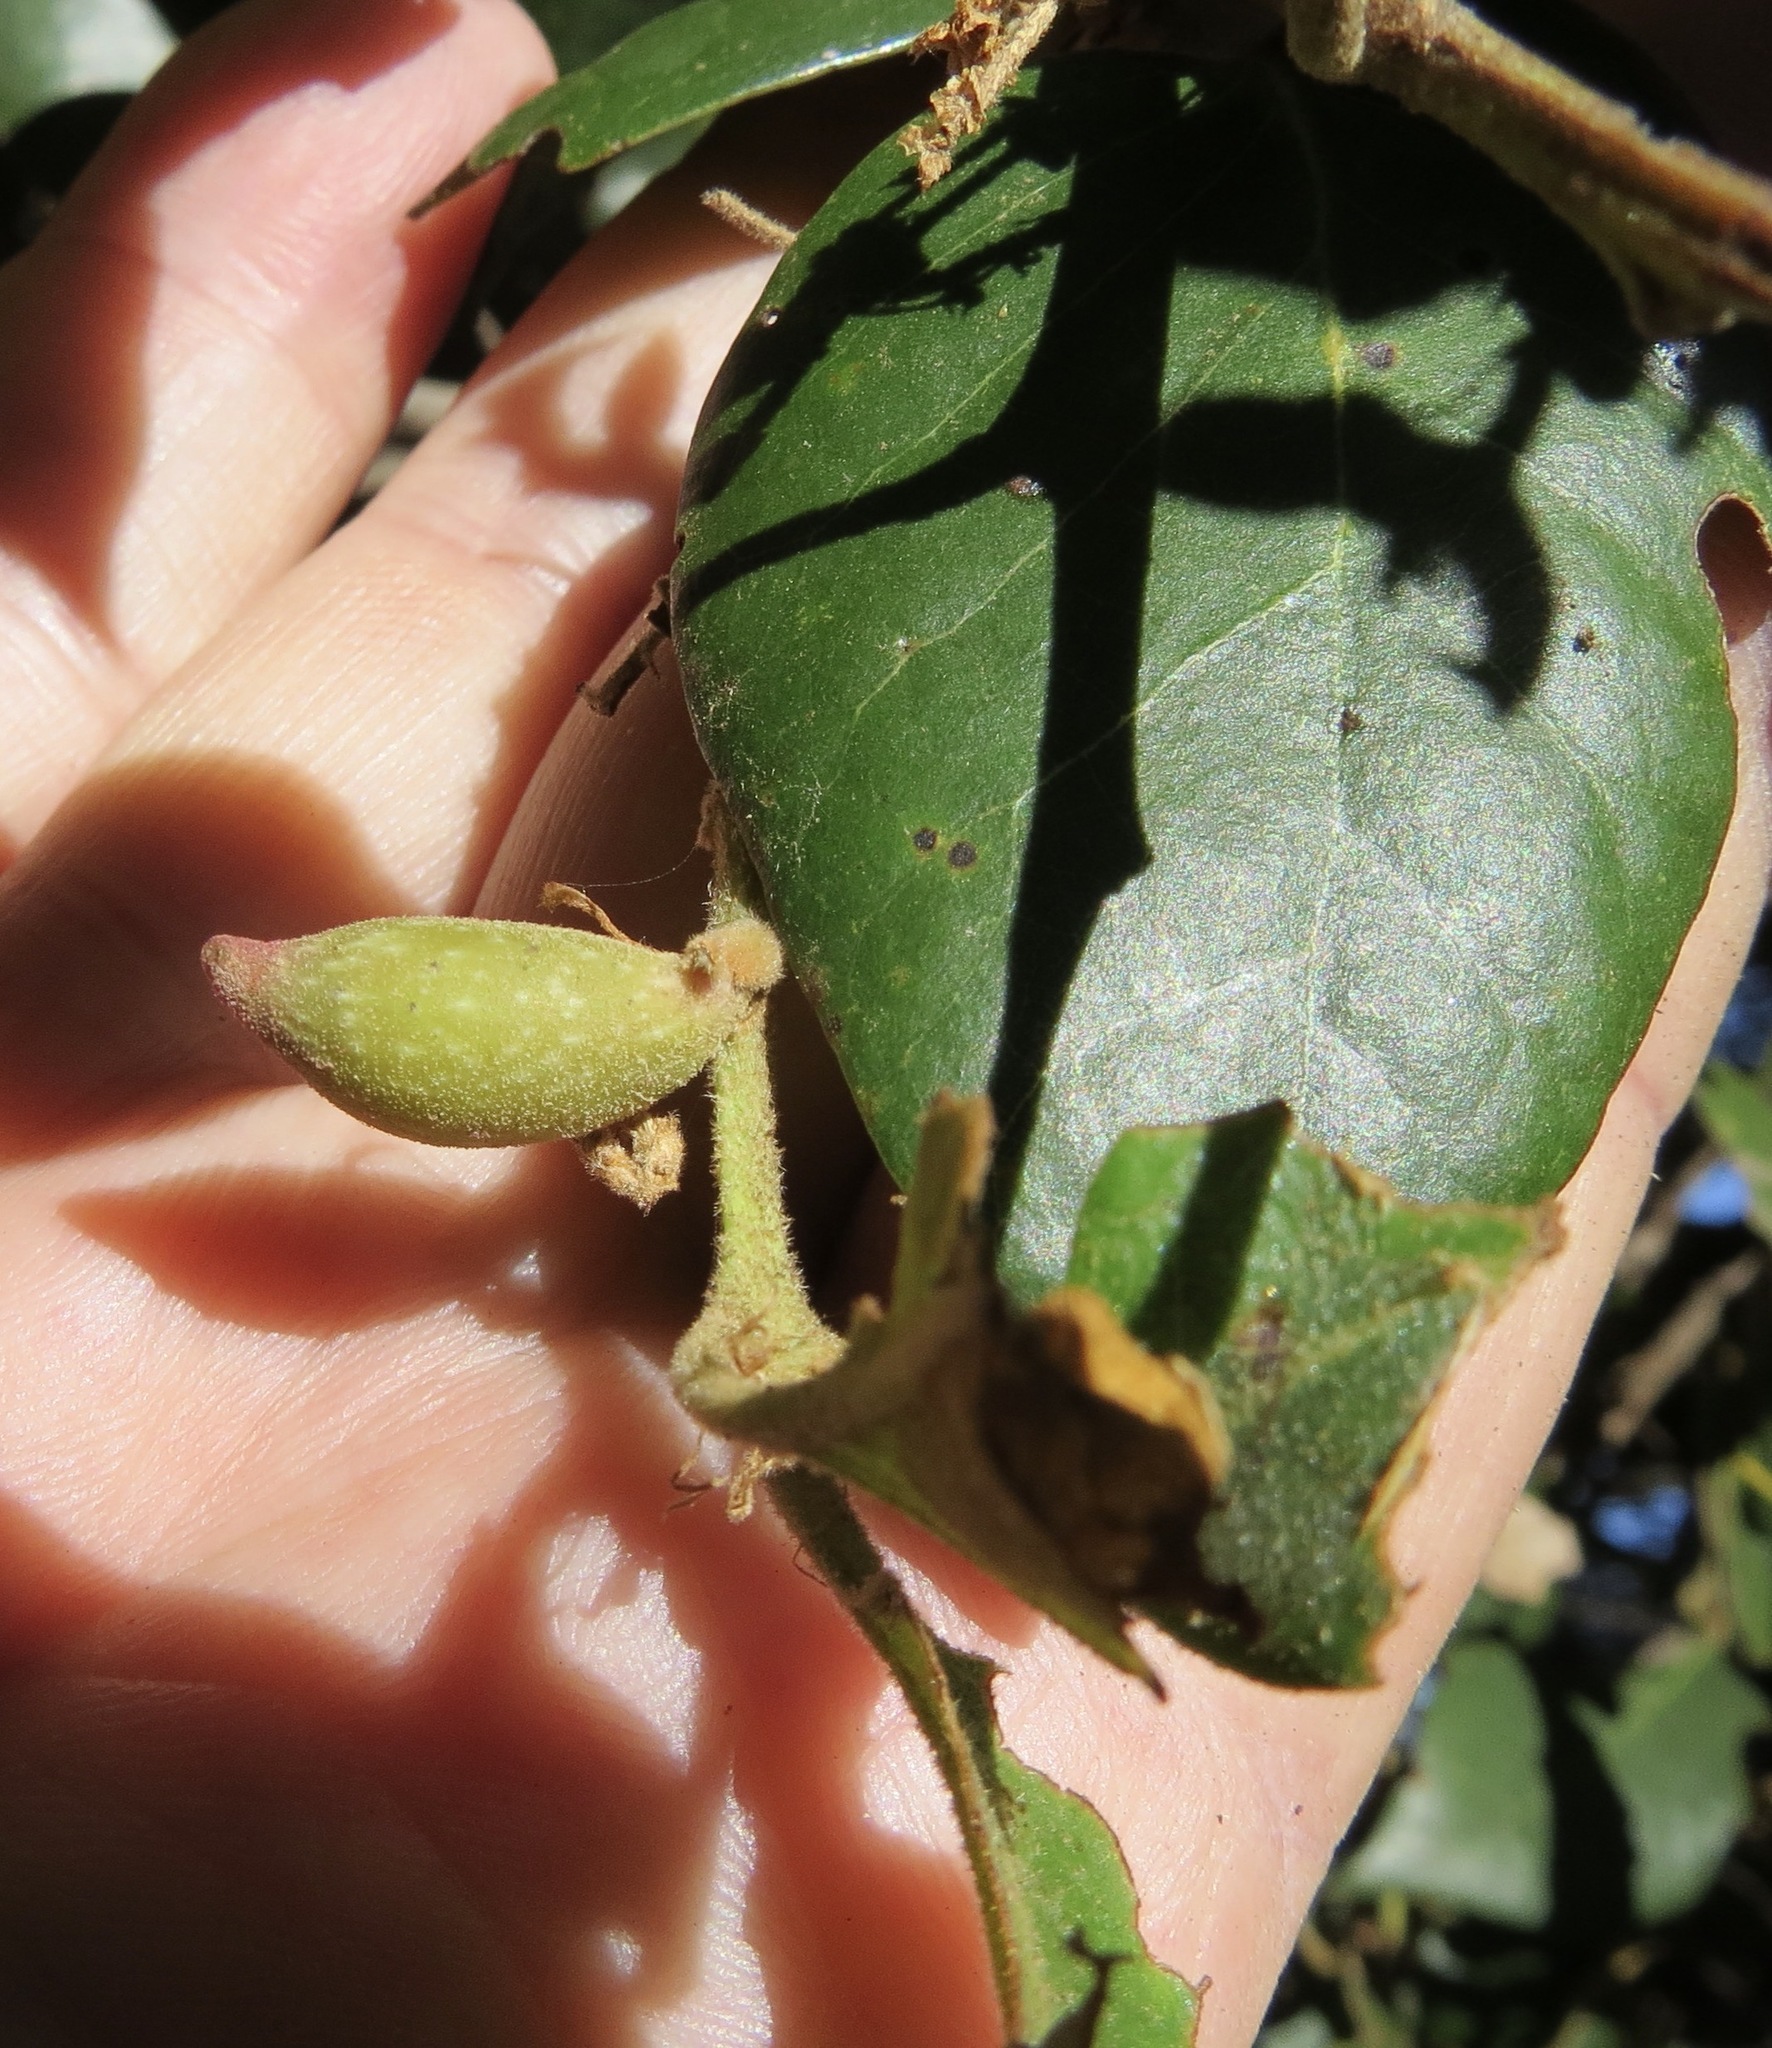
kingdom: Animalia
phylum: Arthropoda
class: Insecta
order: Hymenoptera
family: Cynipidae
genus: Heteroecus
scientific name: Heteroecus pacificus
